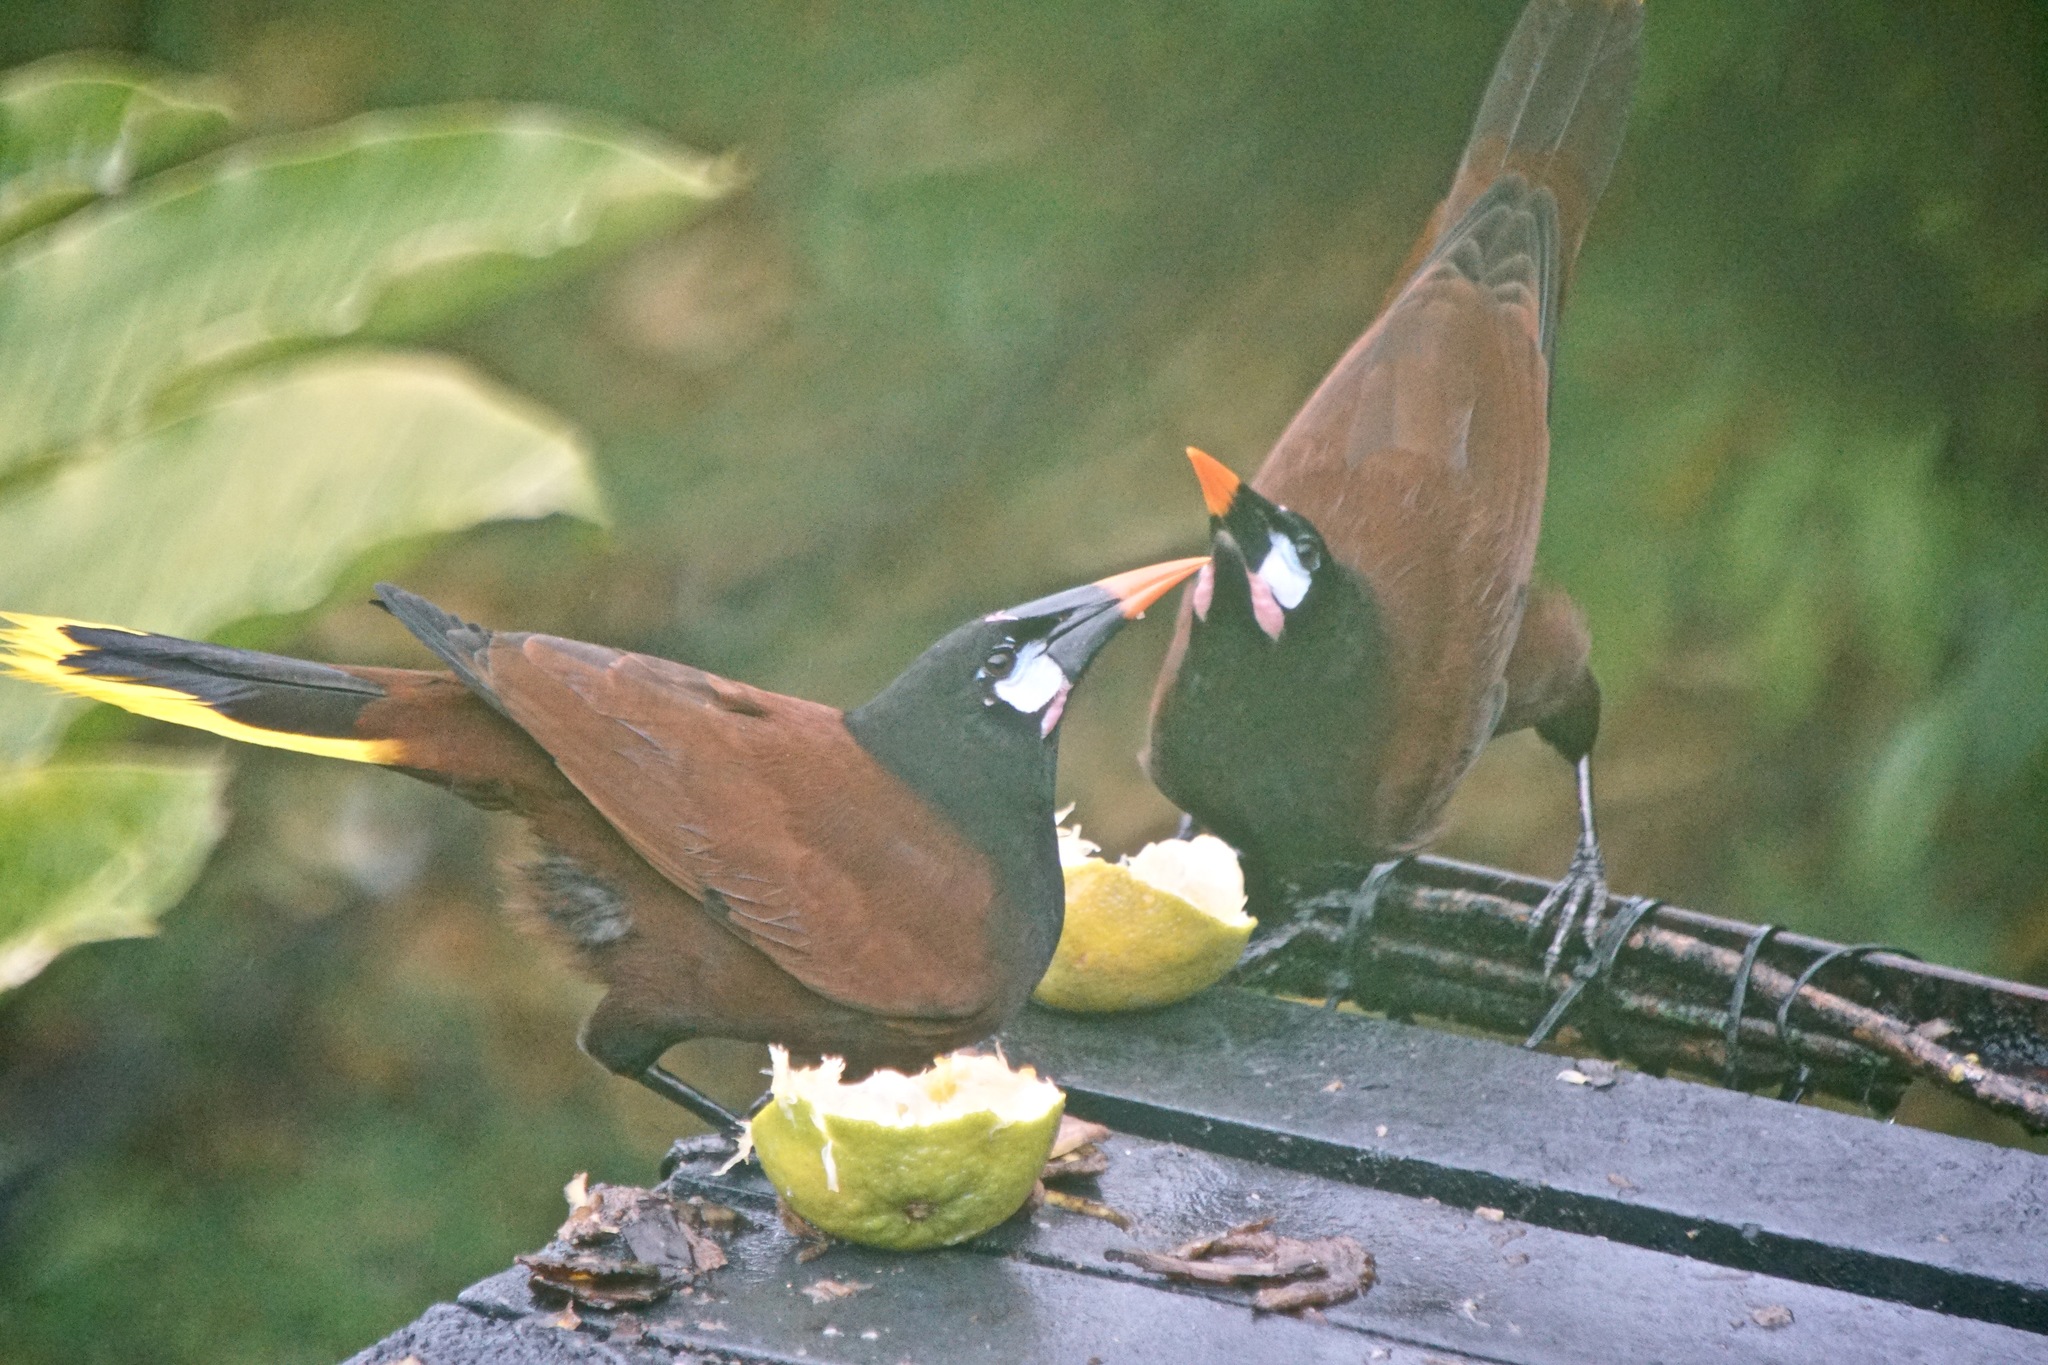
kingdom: Animalia
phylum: Chordata
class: Aves
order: Passeriformes
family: Icteridae
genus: Psarocolius
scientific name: Psarocolius montezuma
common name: Montezuma oropendola
